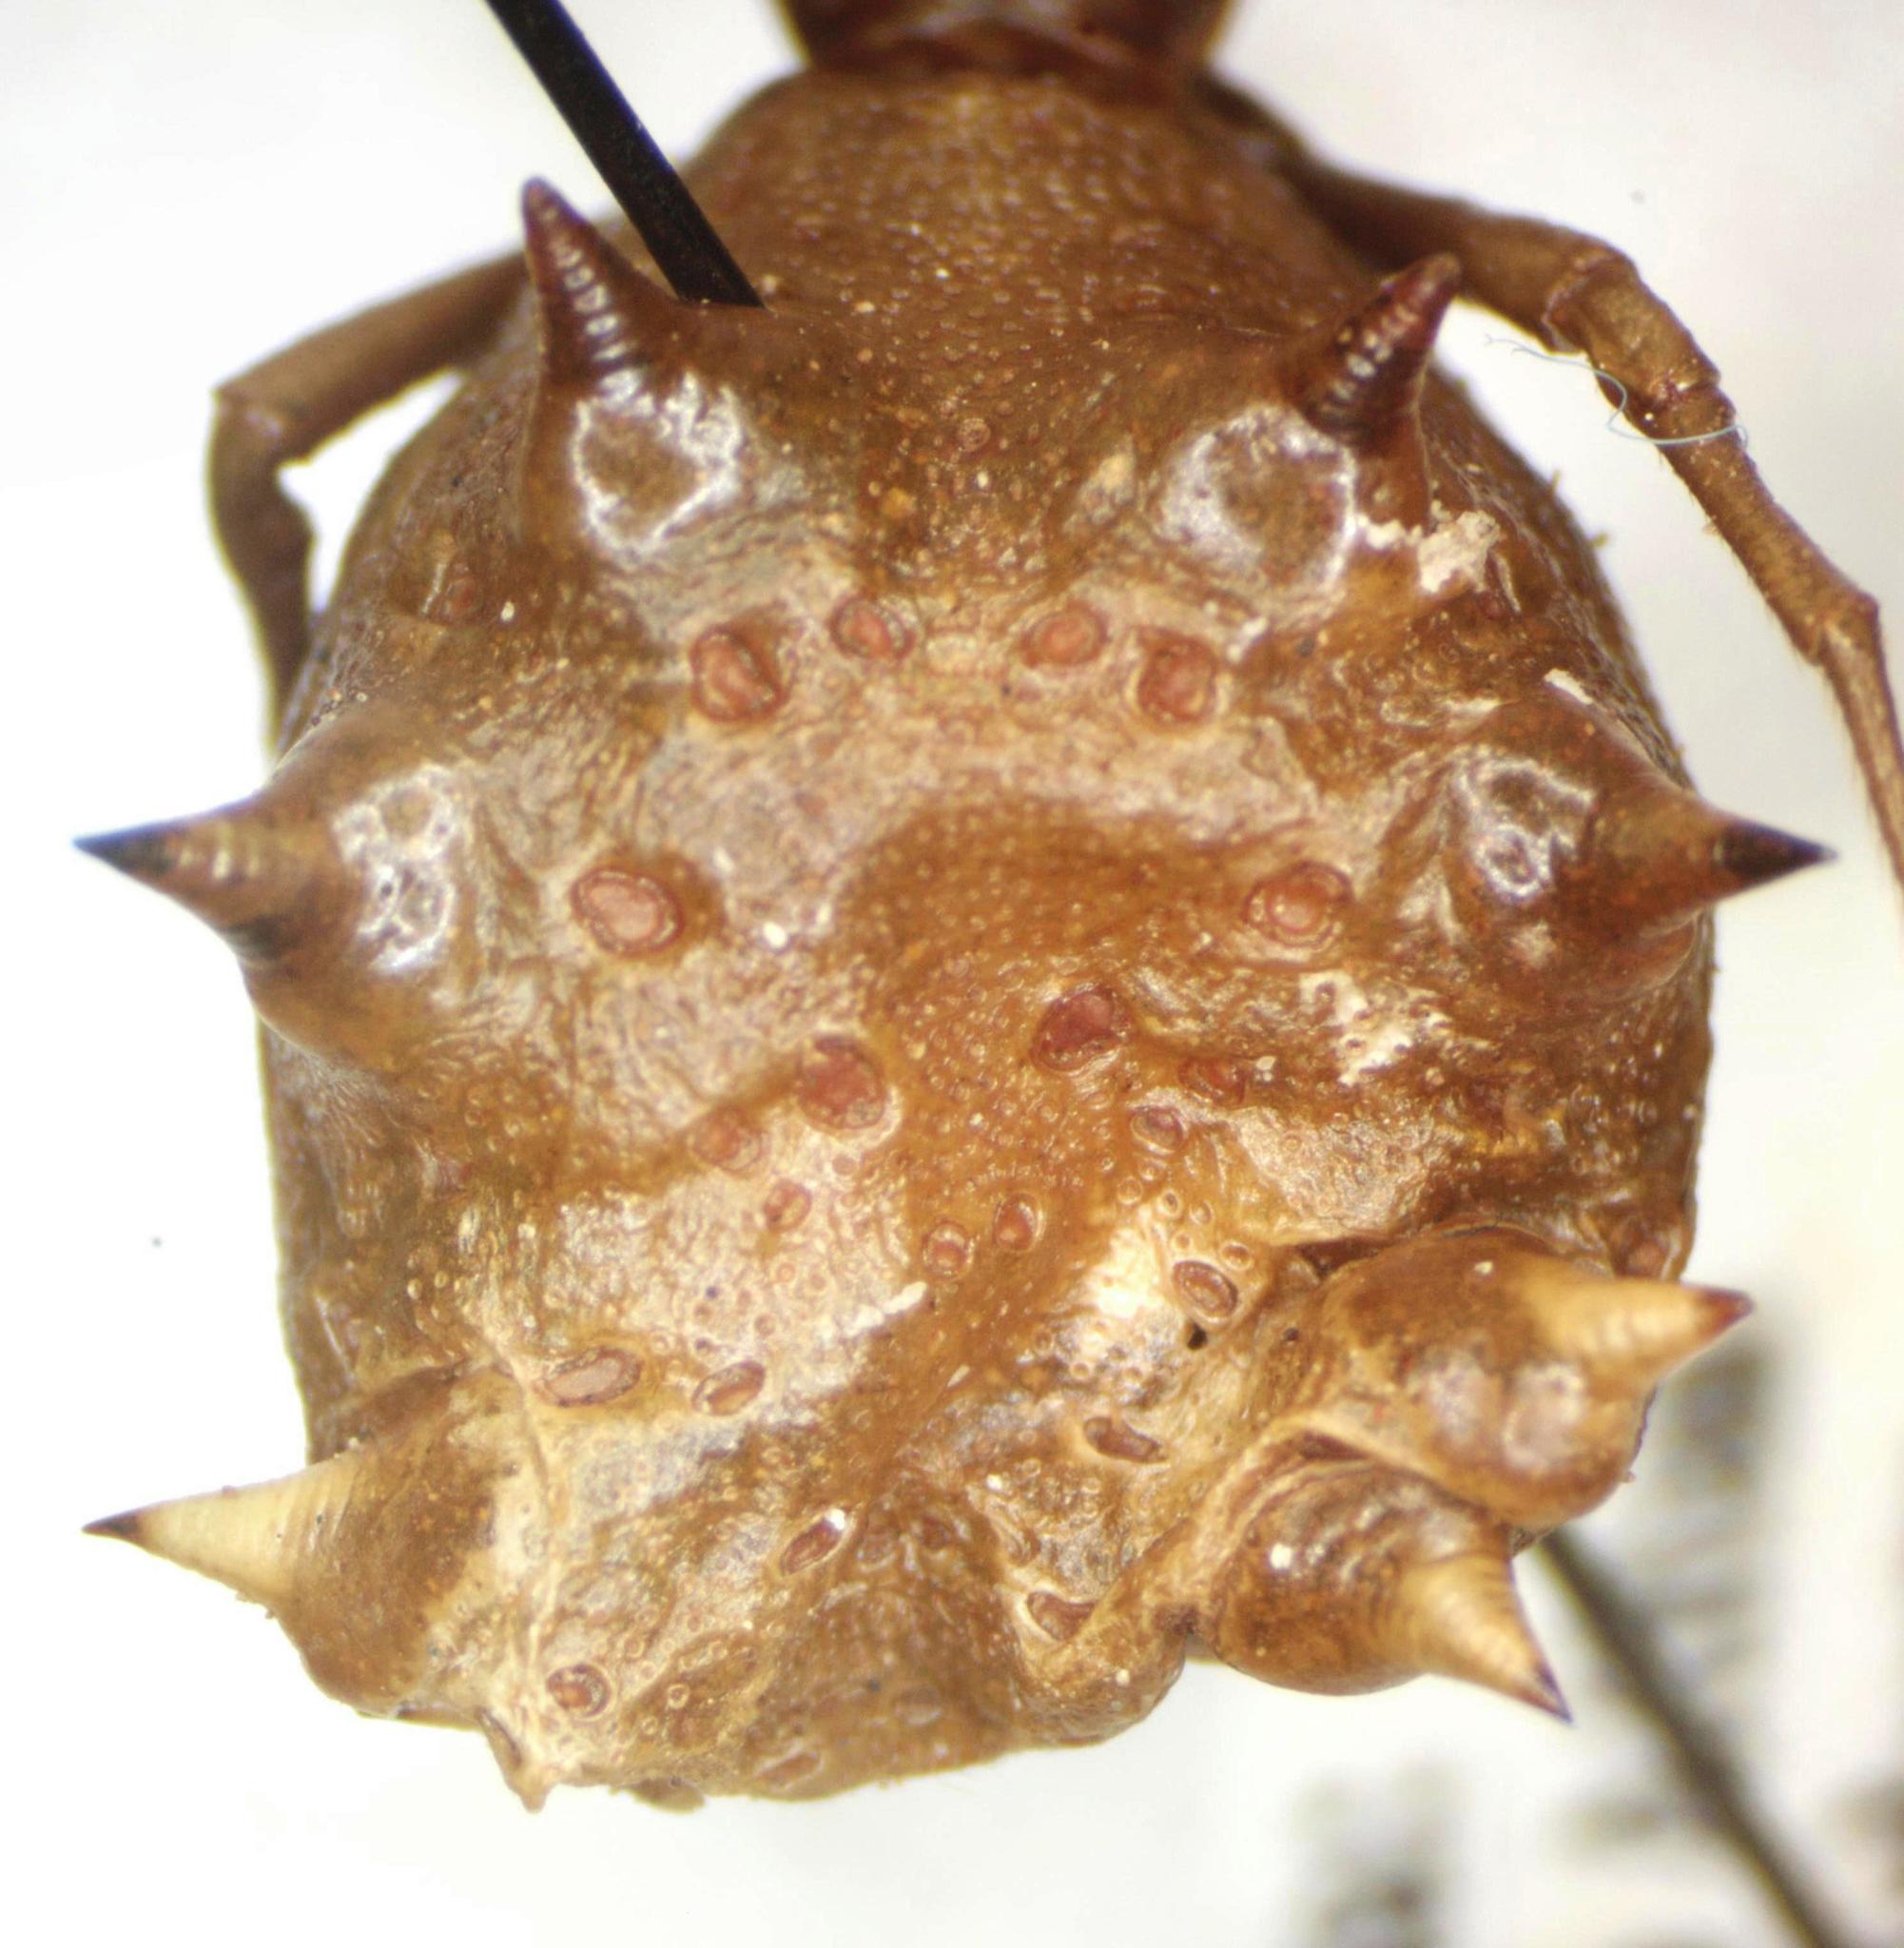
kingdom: Animalia
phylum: Arthropoda
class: Arachnida
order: Araneae
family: Araneidae
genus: Micrathena
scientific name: Micrathena gracilis
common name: Orb weavers
